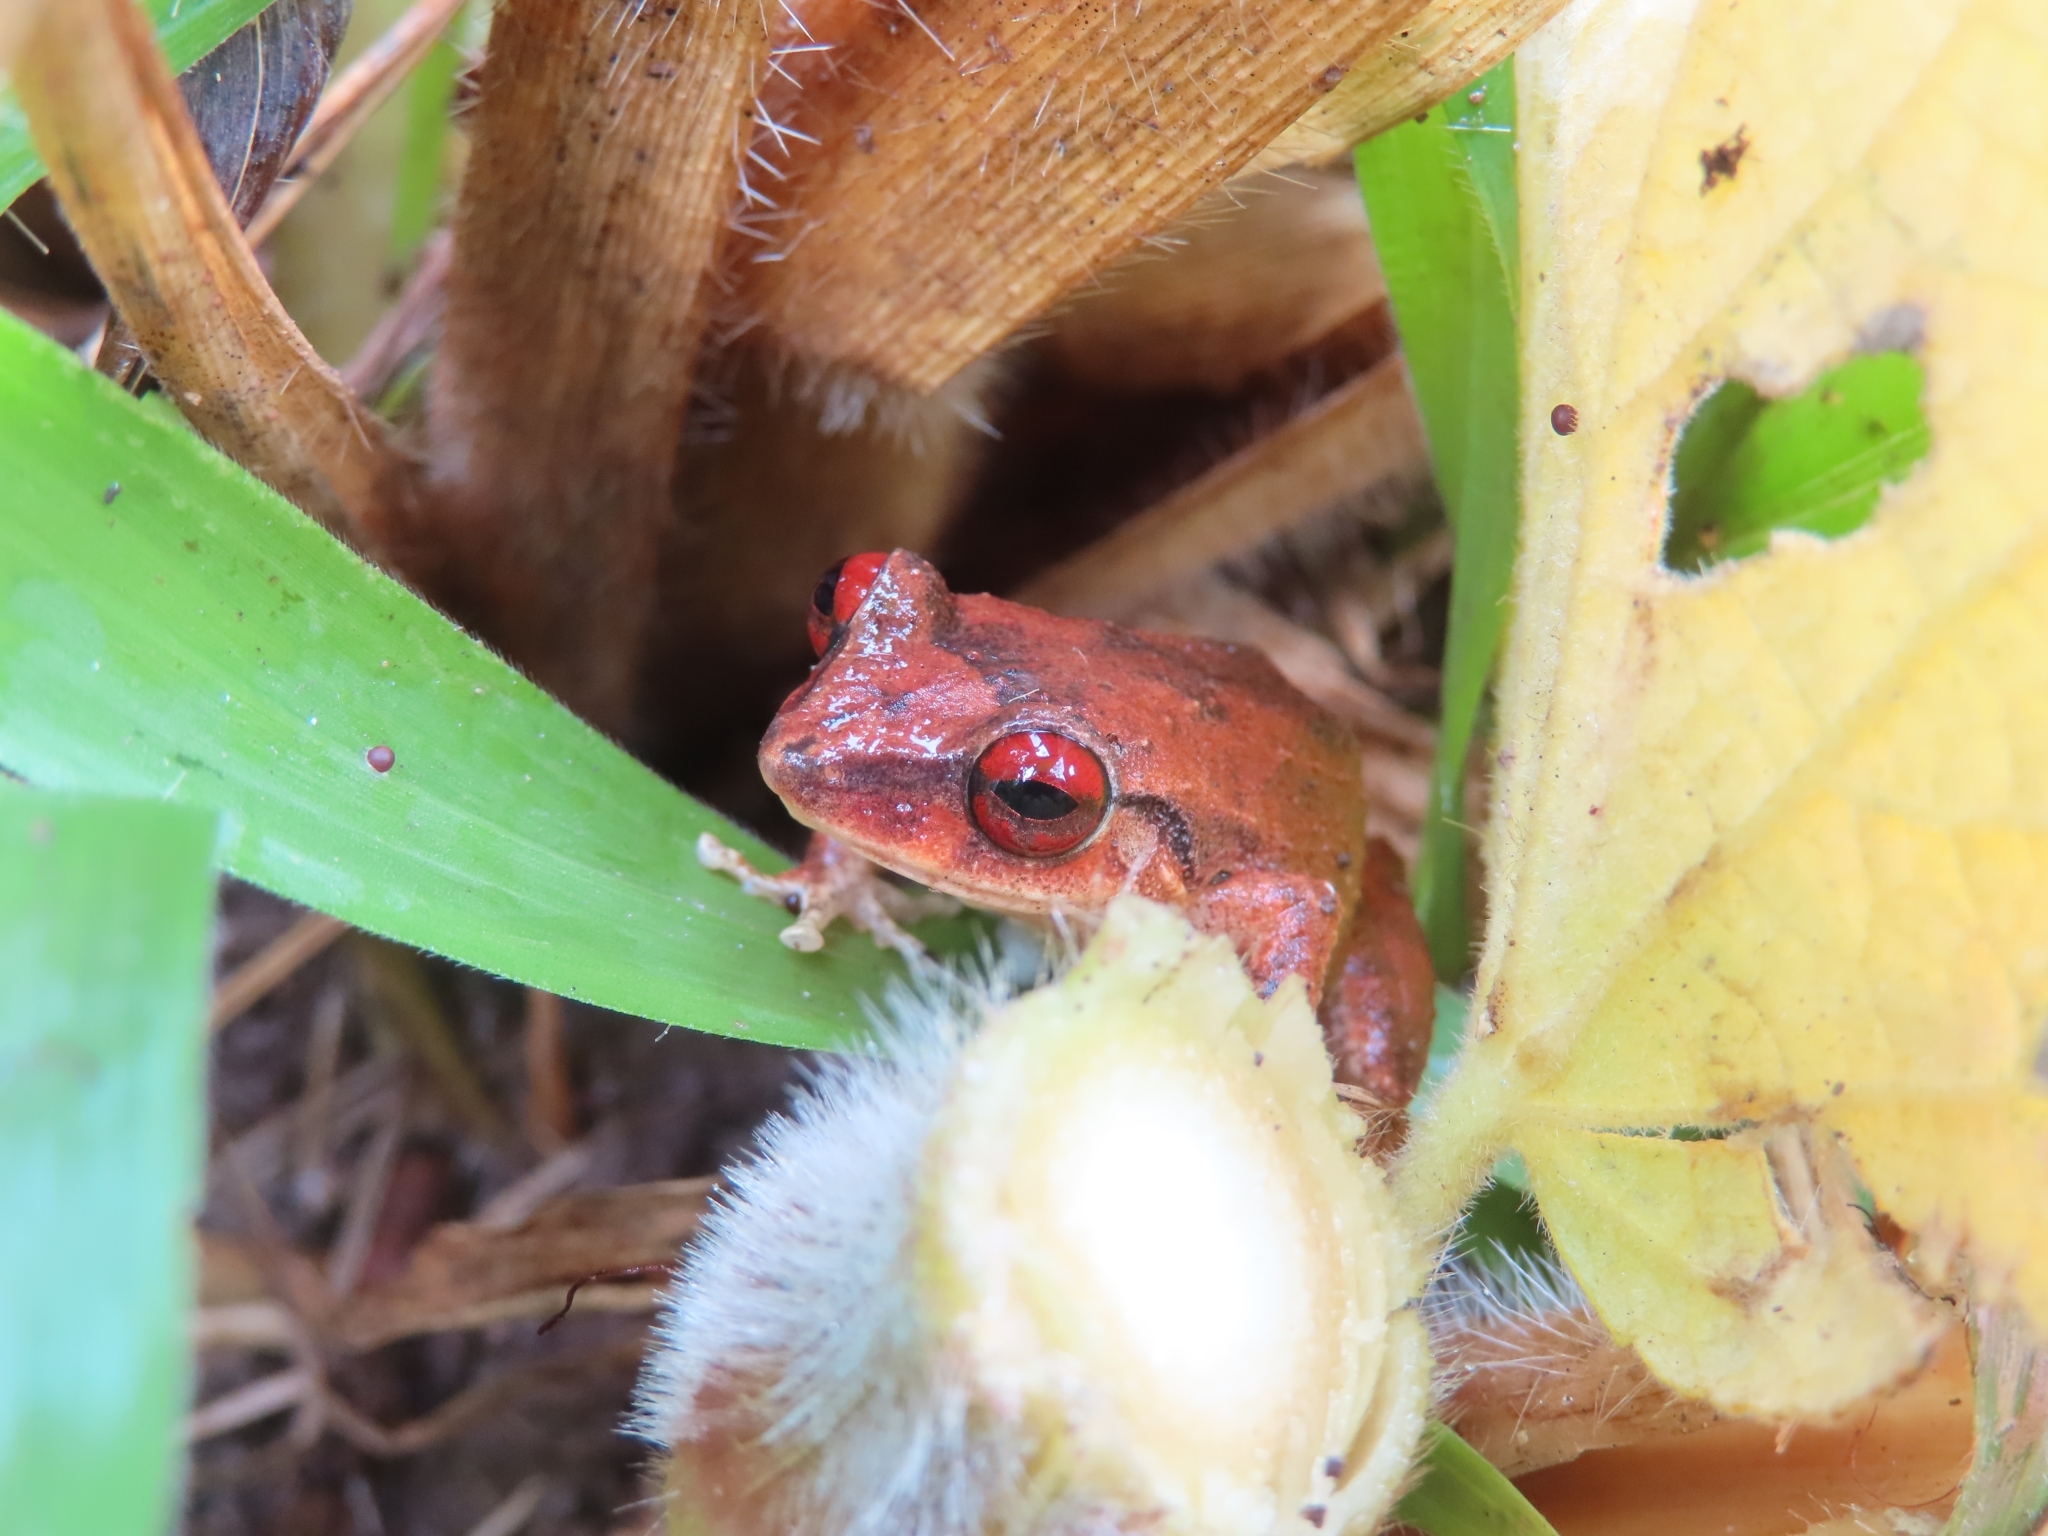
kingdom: Animalia
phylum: Chordata
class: Amphibia
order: Anura
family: Eleutherodactylidae
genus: Eleutherodactylus
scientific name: Eleutherodactylus antillensis
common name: Antillean coqui
